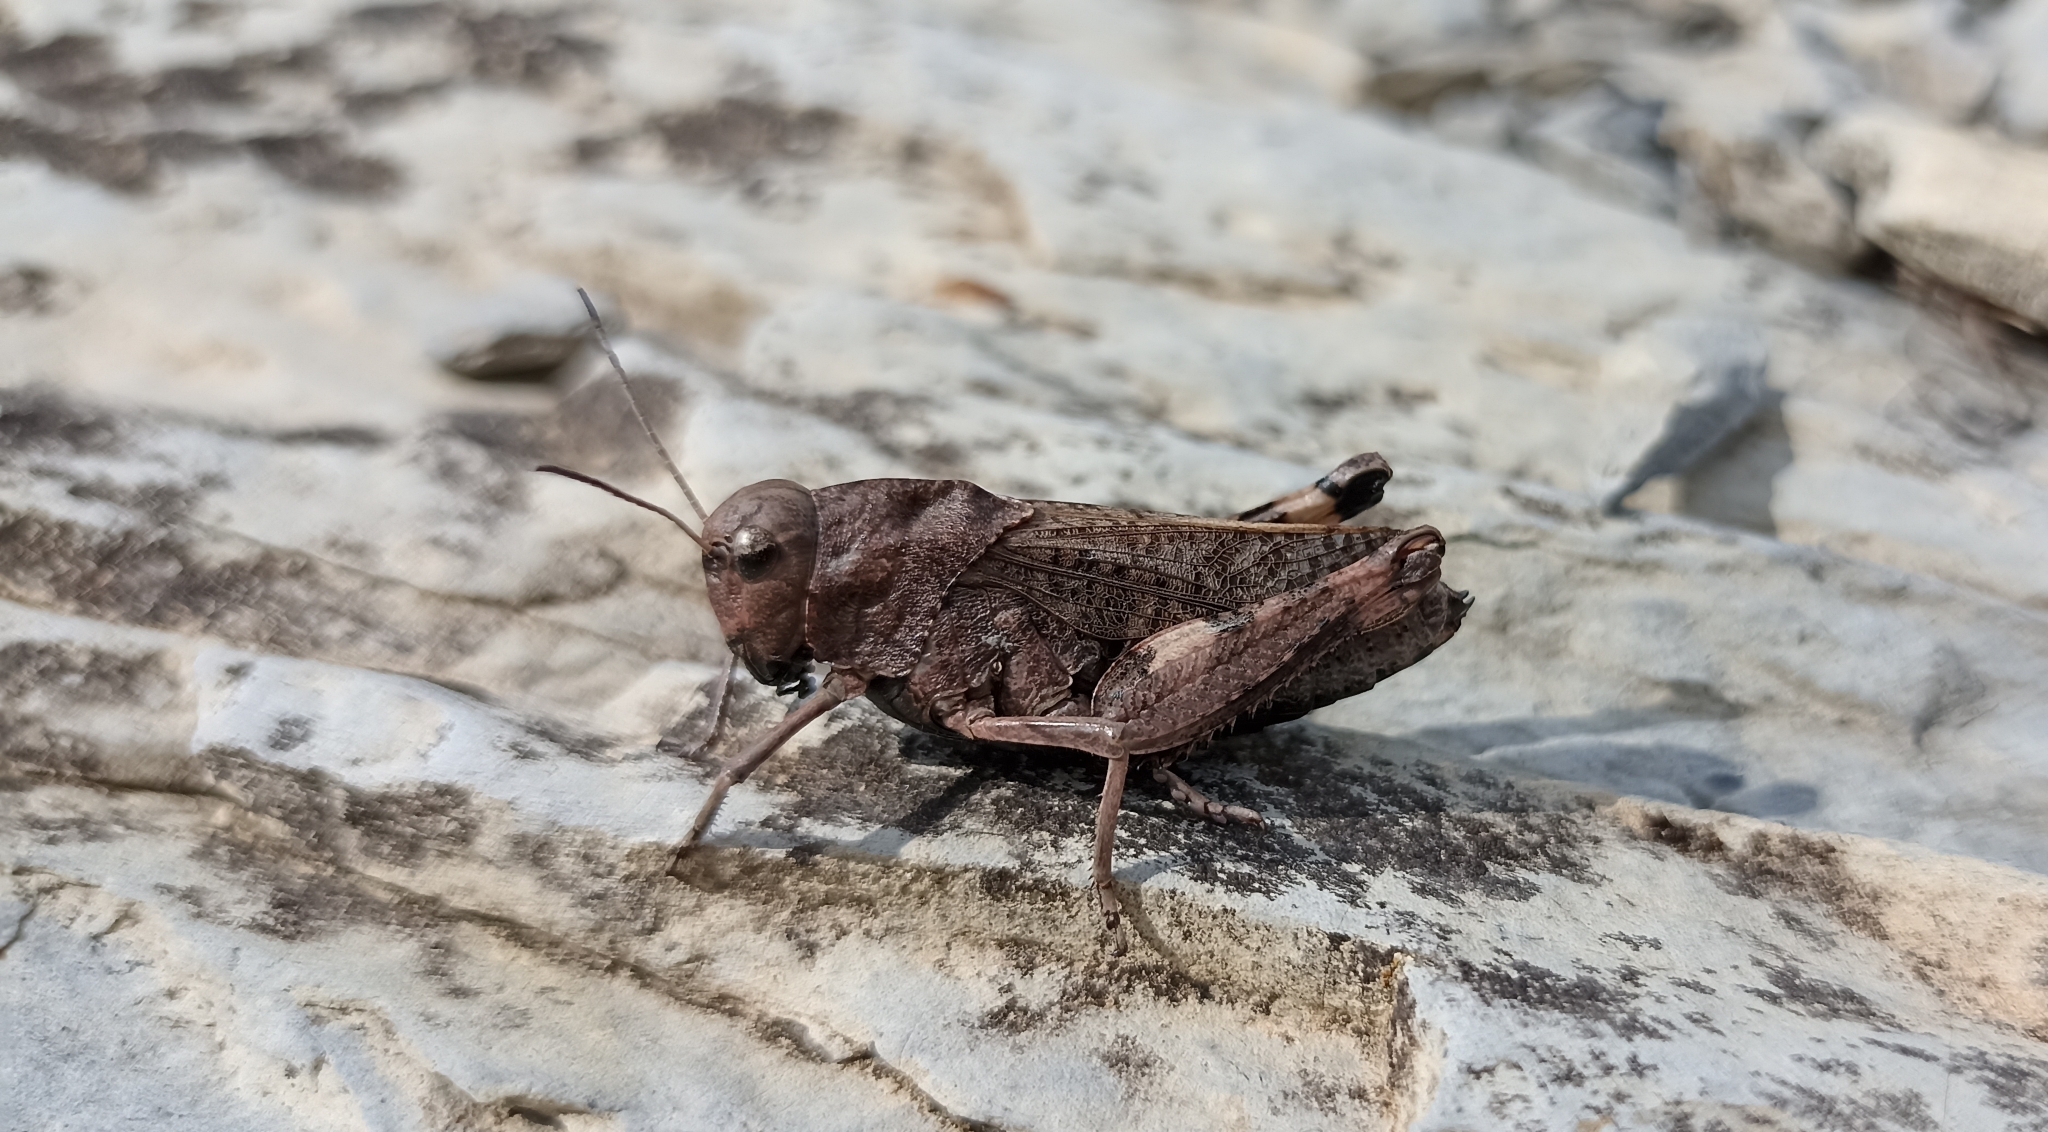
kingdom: Animalia
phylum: Arthropoda
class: Insecta
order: Orthoptera
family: Acrididae
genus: Psophus
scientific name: Psophus stridulus
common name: Rattle grasshopper
